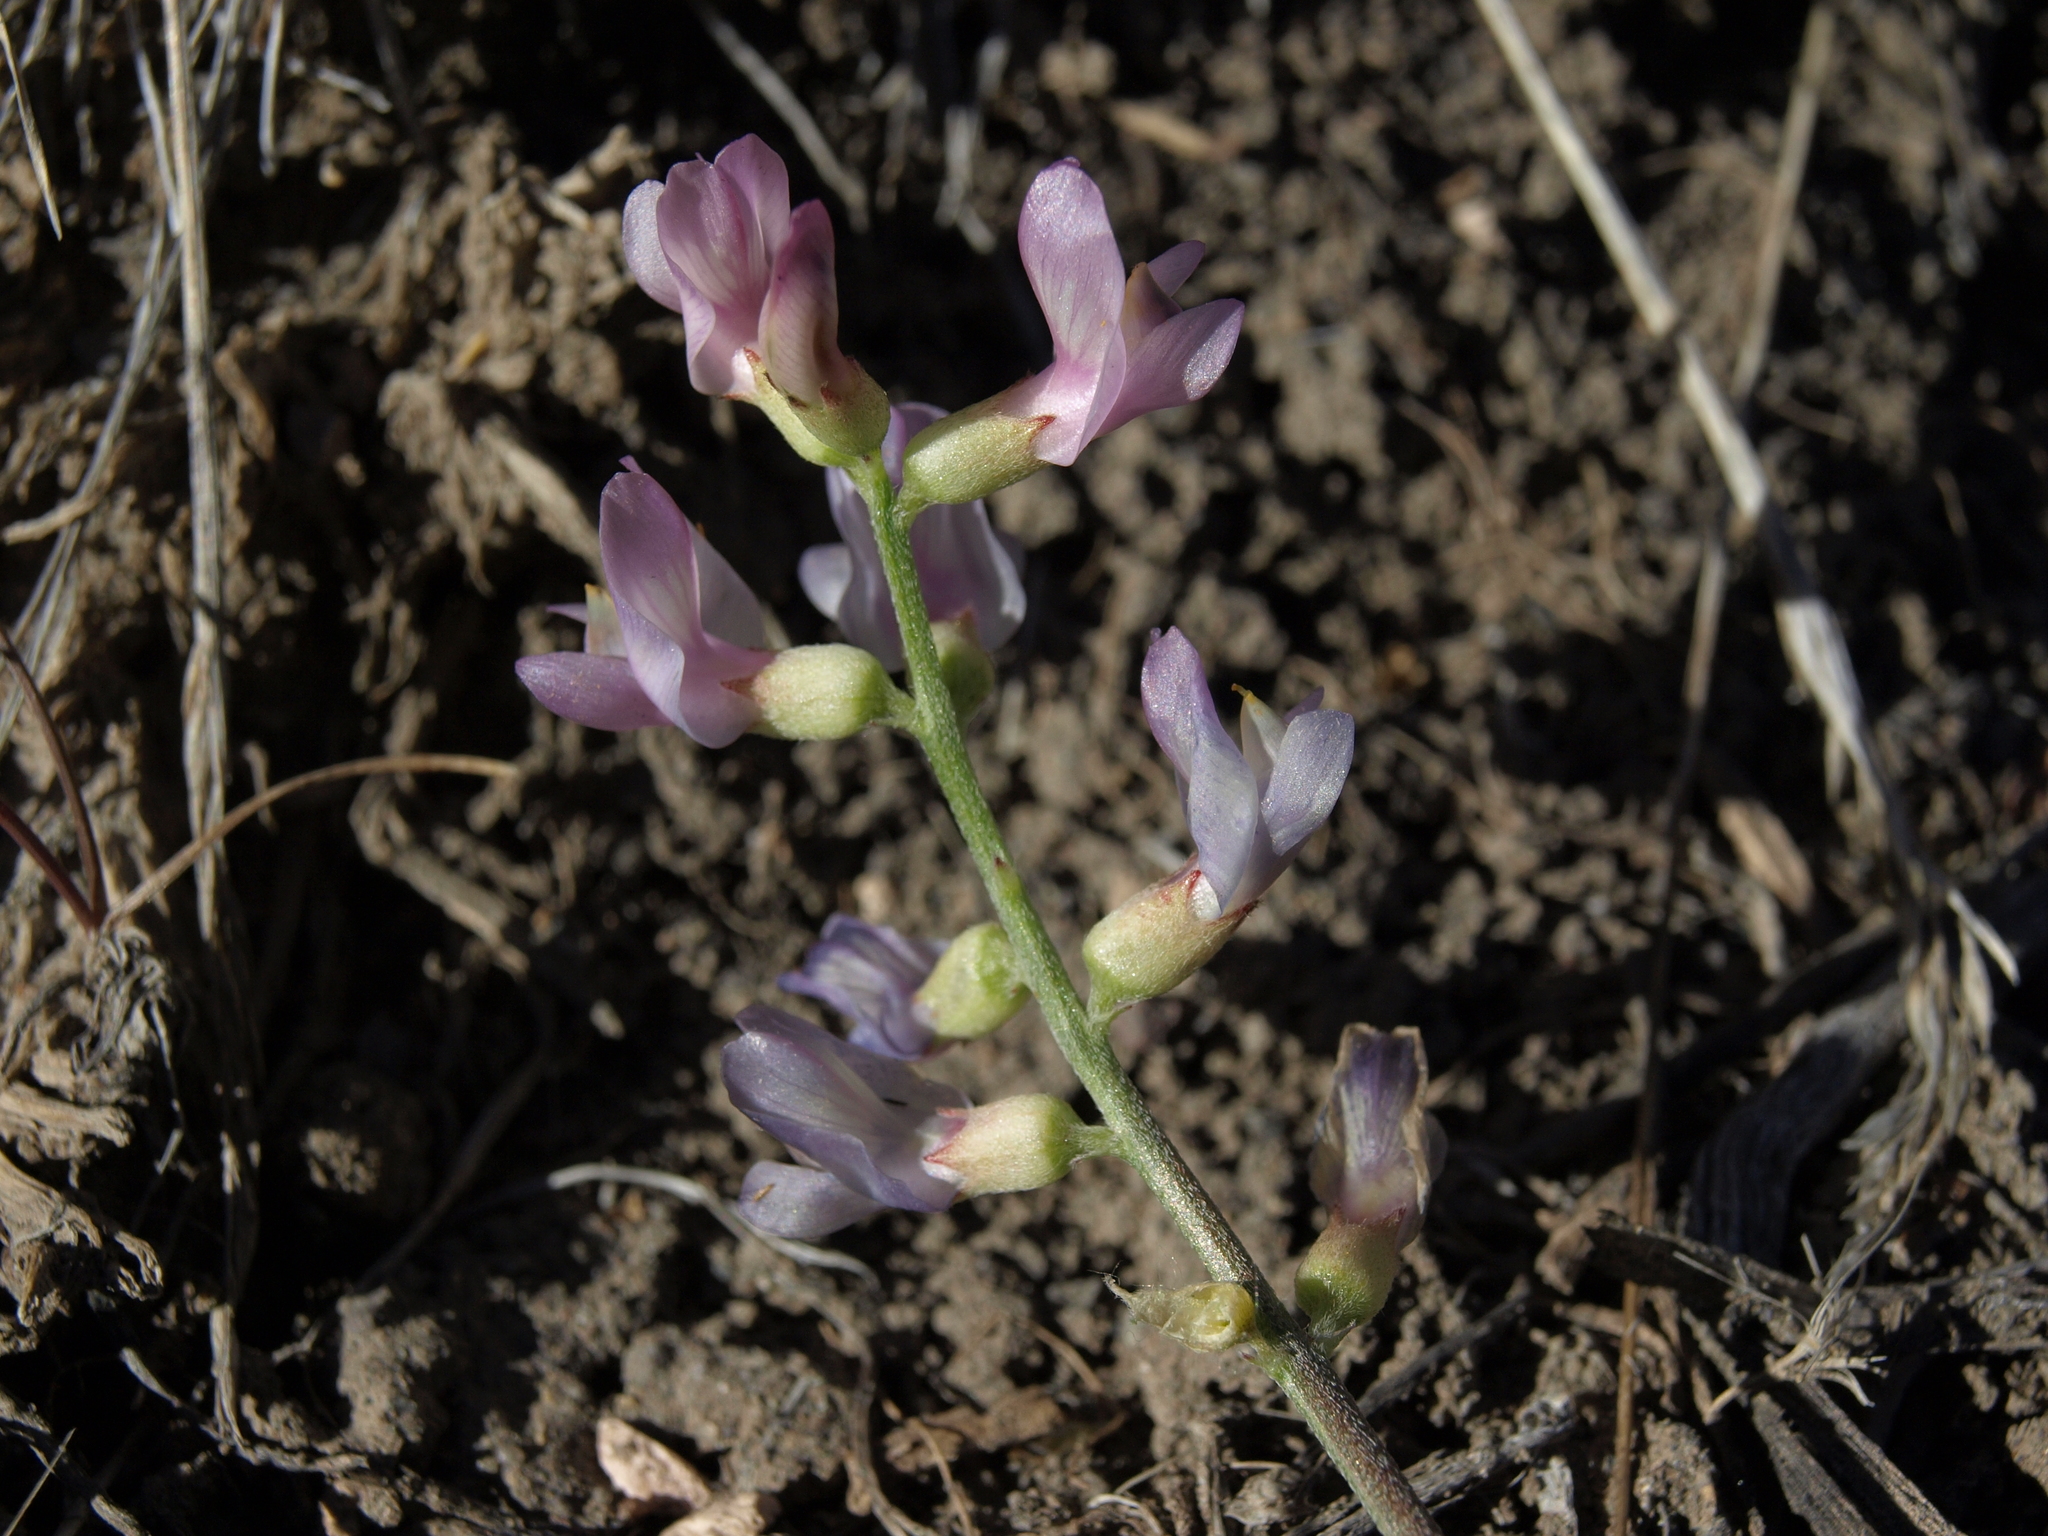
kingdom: Plantae
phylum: Tracheophyta
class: Magnoliopsida
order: Fabales
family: Fabaceae
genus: Astragalus
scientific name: Astragalus whitneyi
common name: Balloonpod milkvetch
